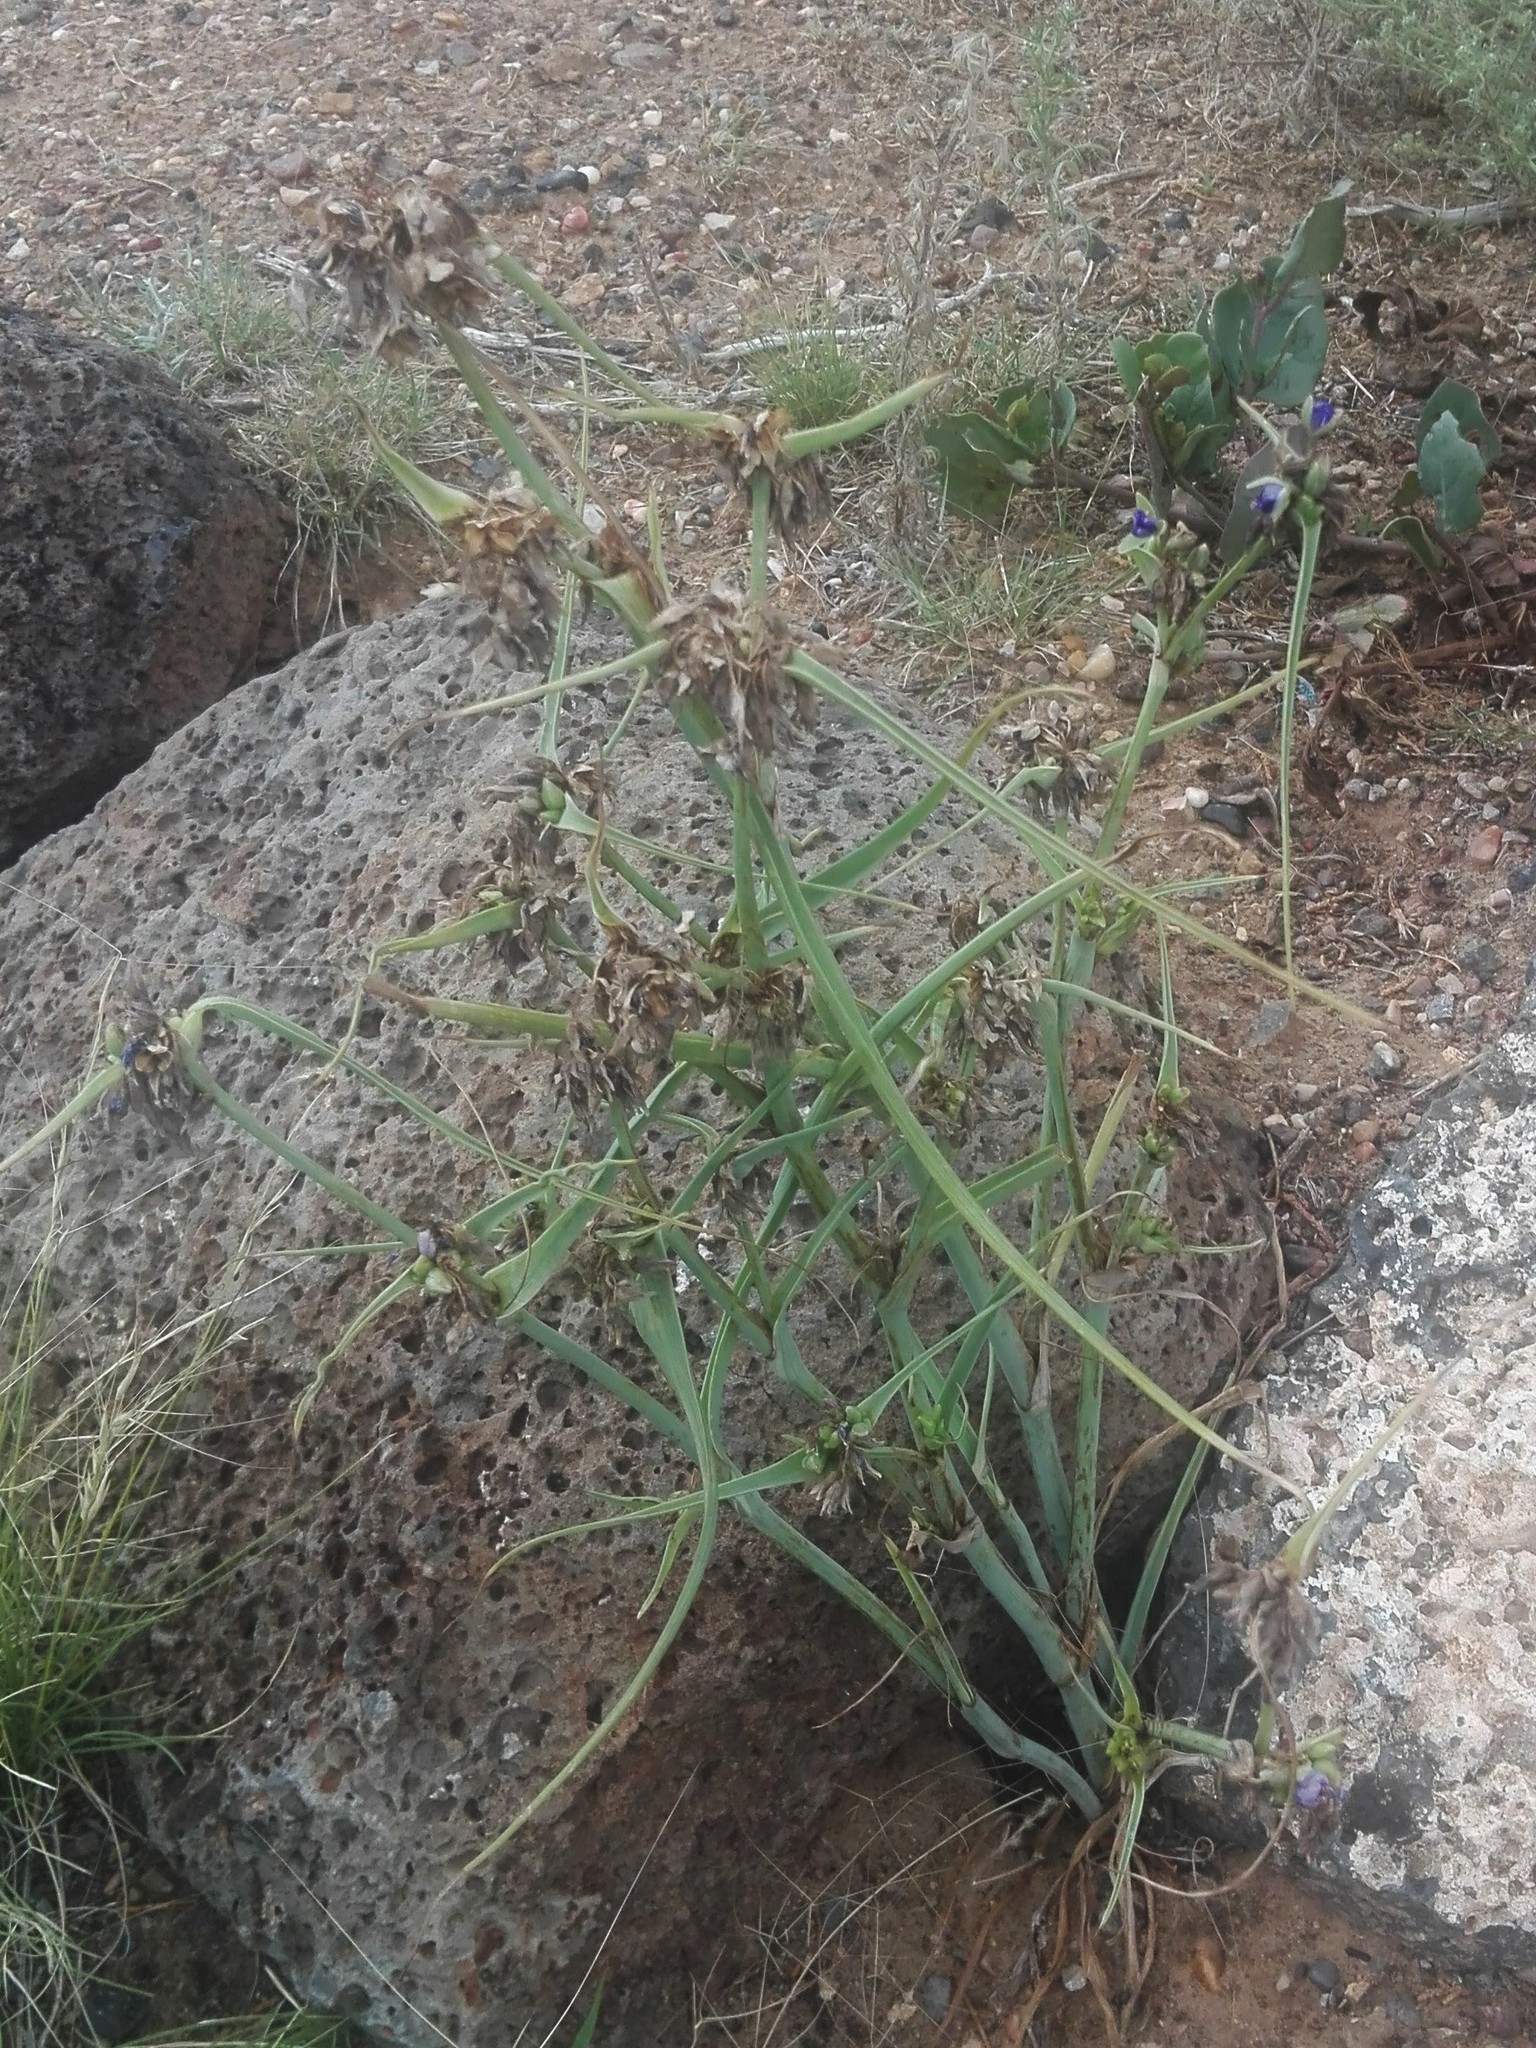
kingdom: Plantae
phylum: Tracheophyta
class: Liliopsida
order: Commelinales
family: Commelinaceae
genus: Tradescantia
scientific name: Tradescantia occidentalis
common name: Prairie spiderwort
